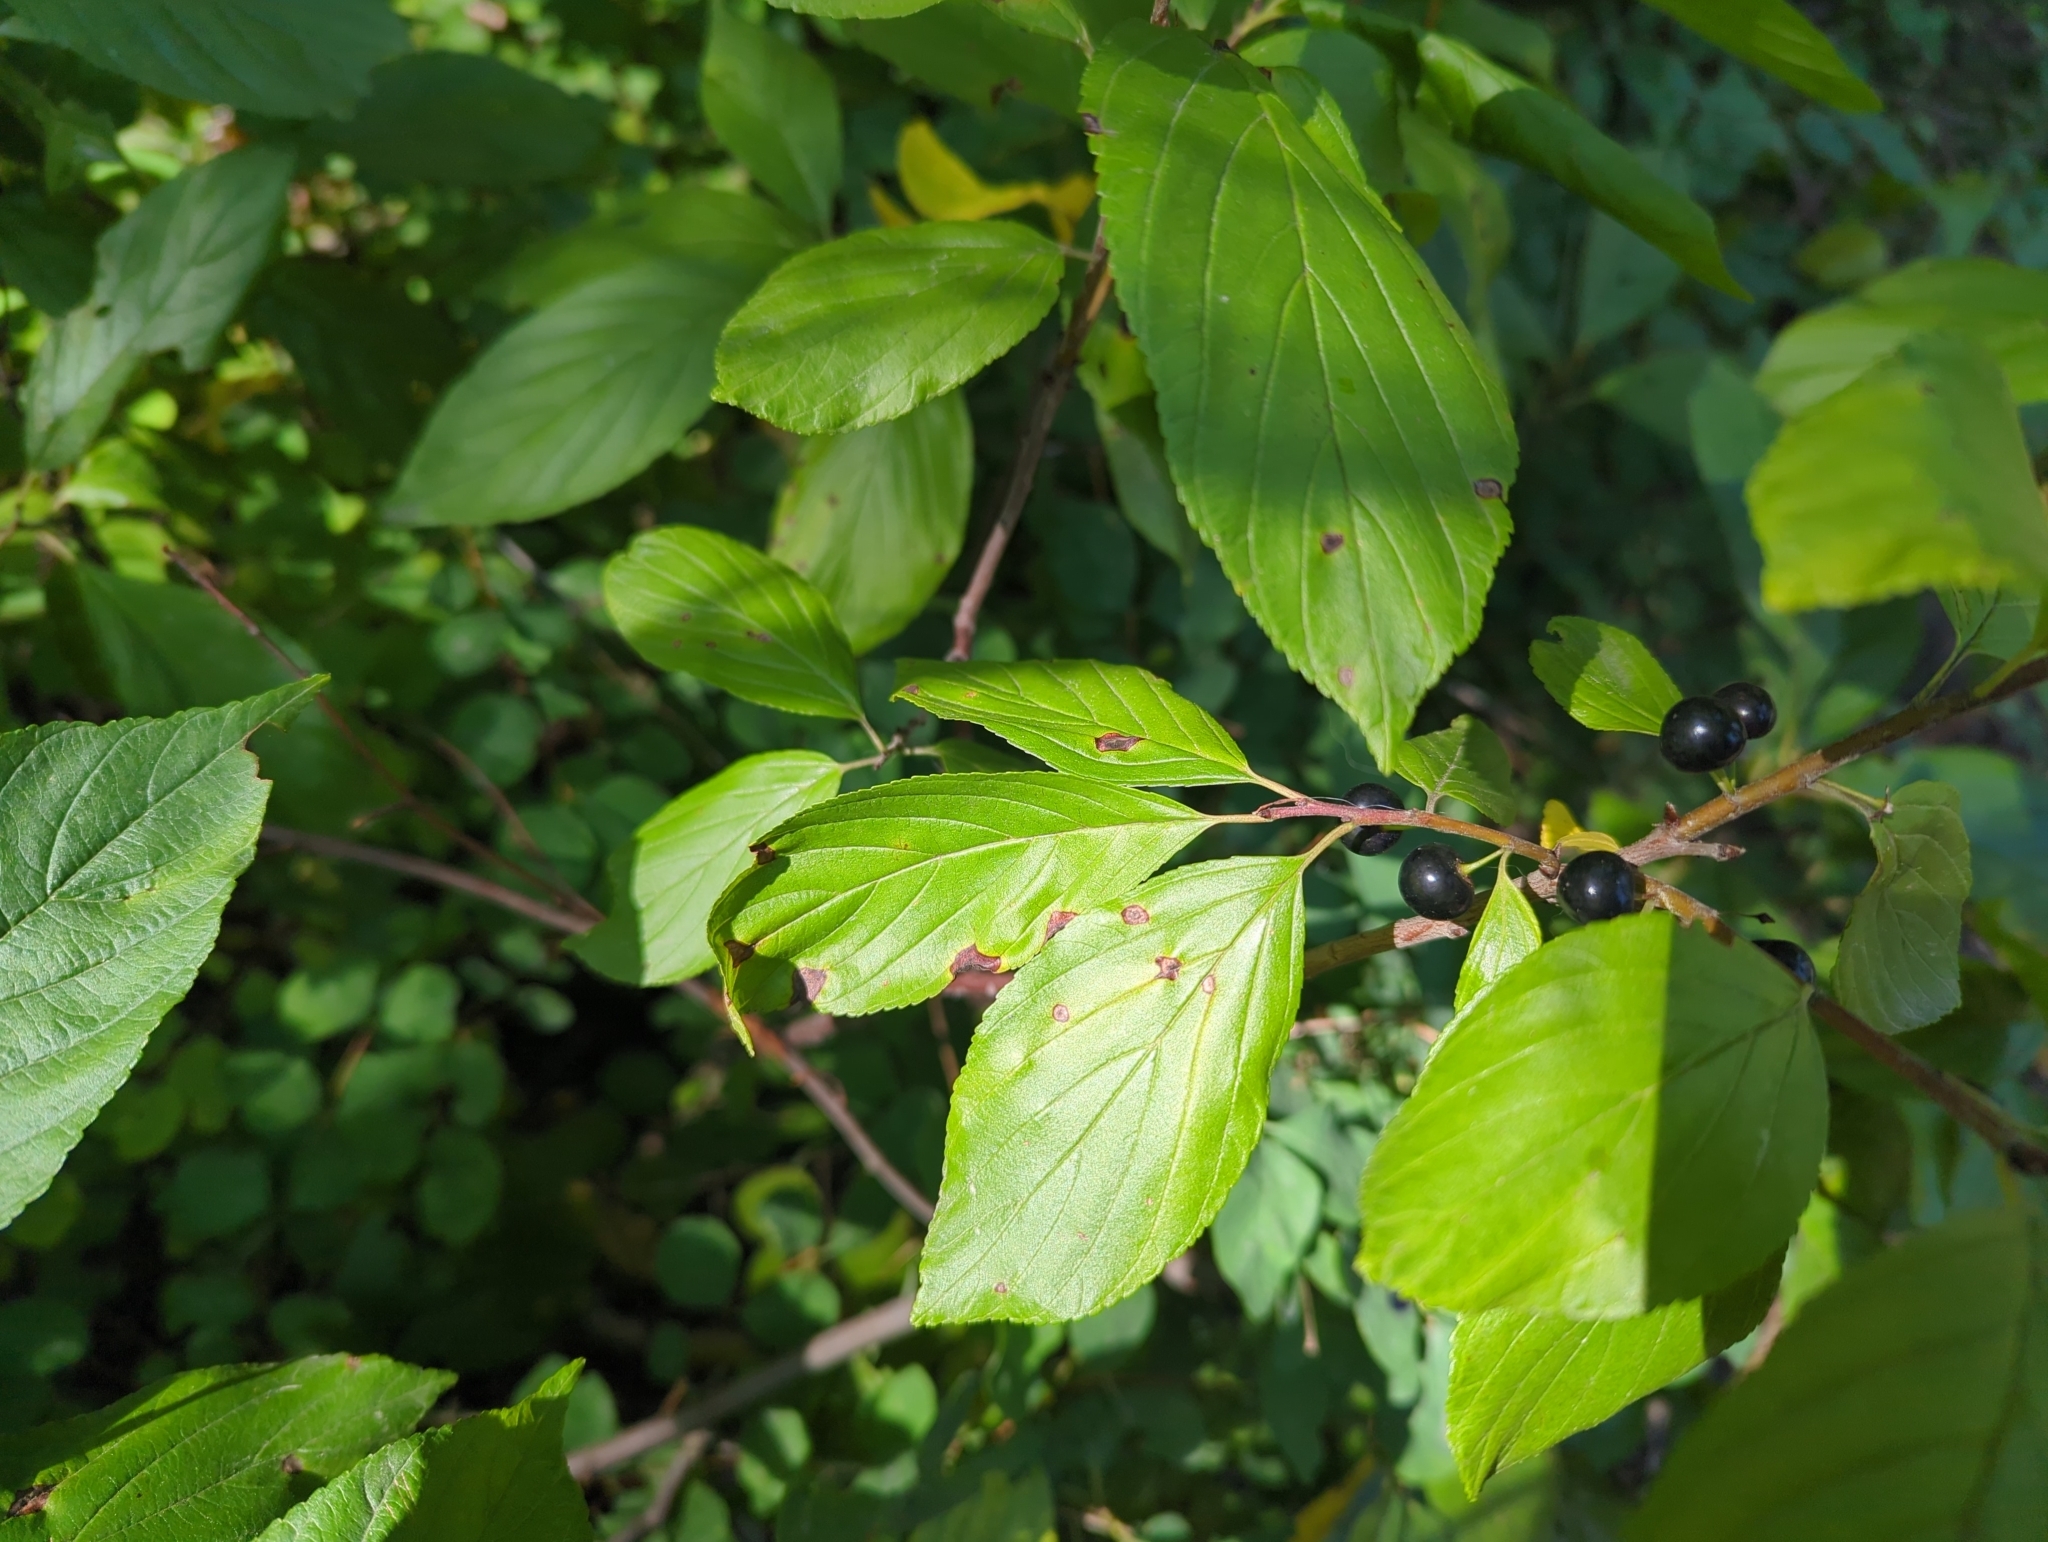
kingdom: Plantae
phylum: Tracheophyta
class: Magnoliopsida
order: Rosales
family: Rhamnaceae
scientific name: Rhamnaceae
